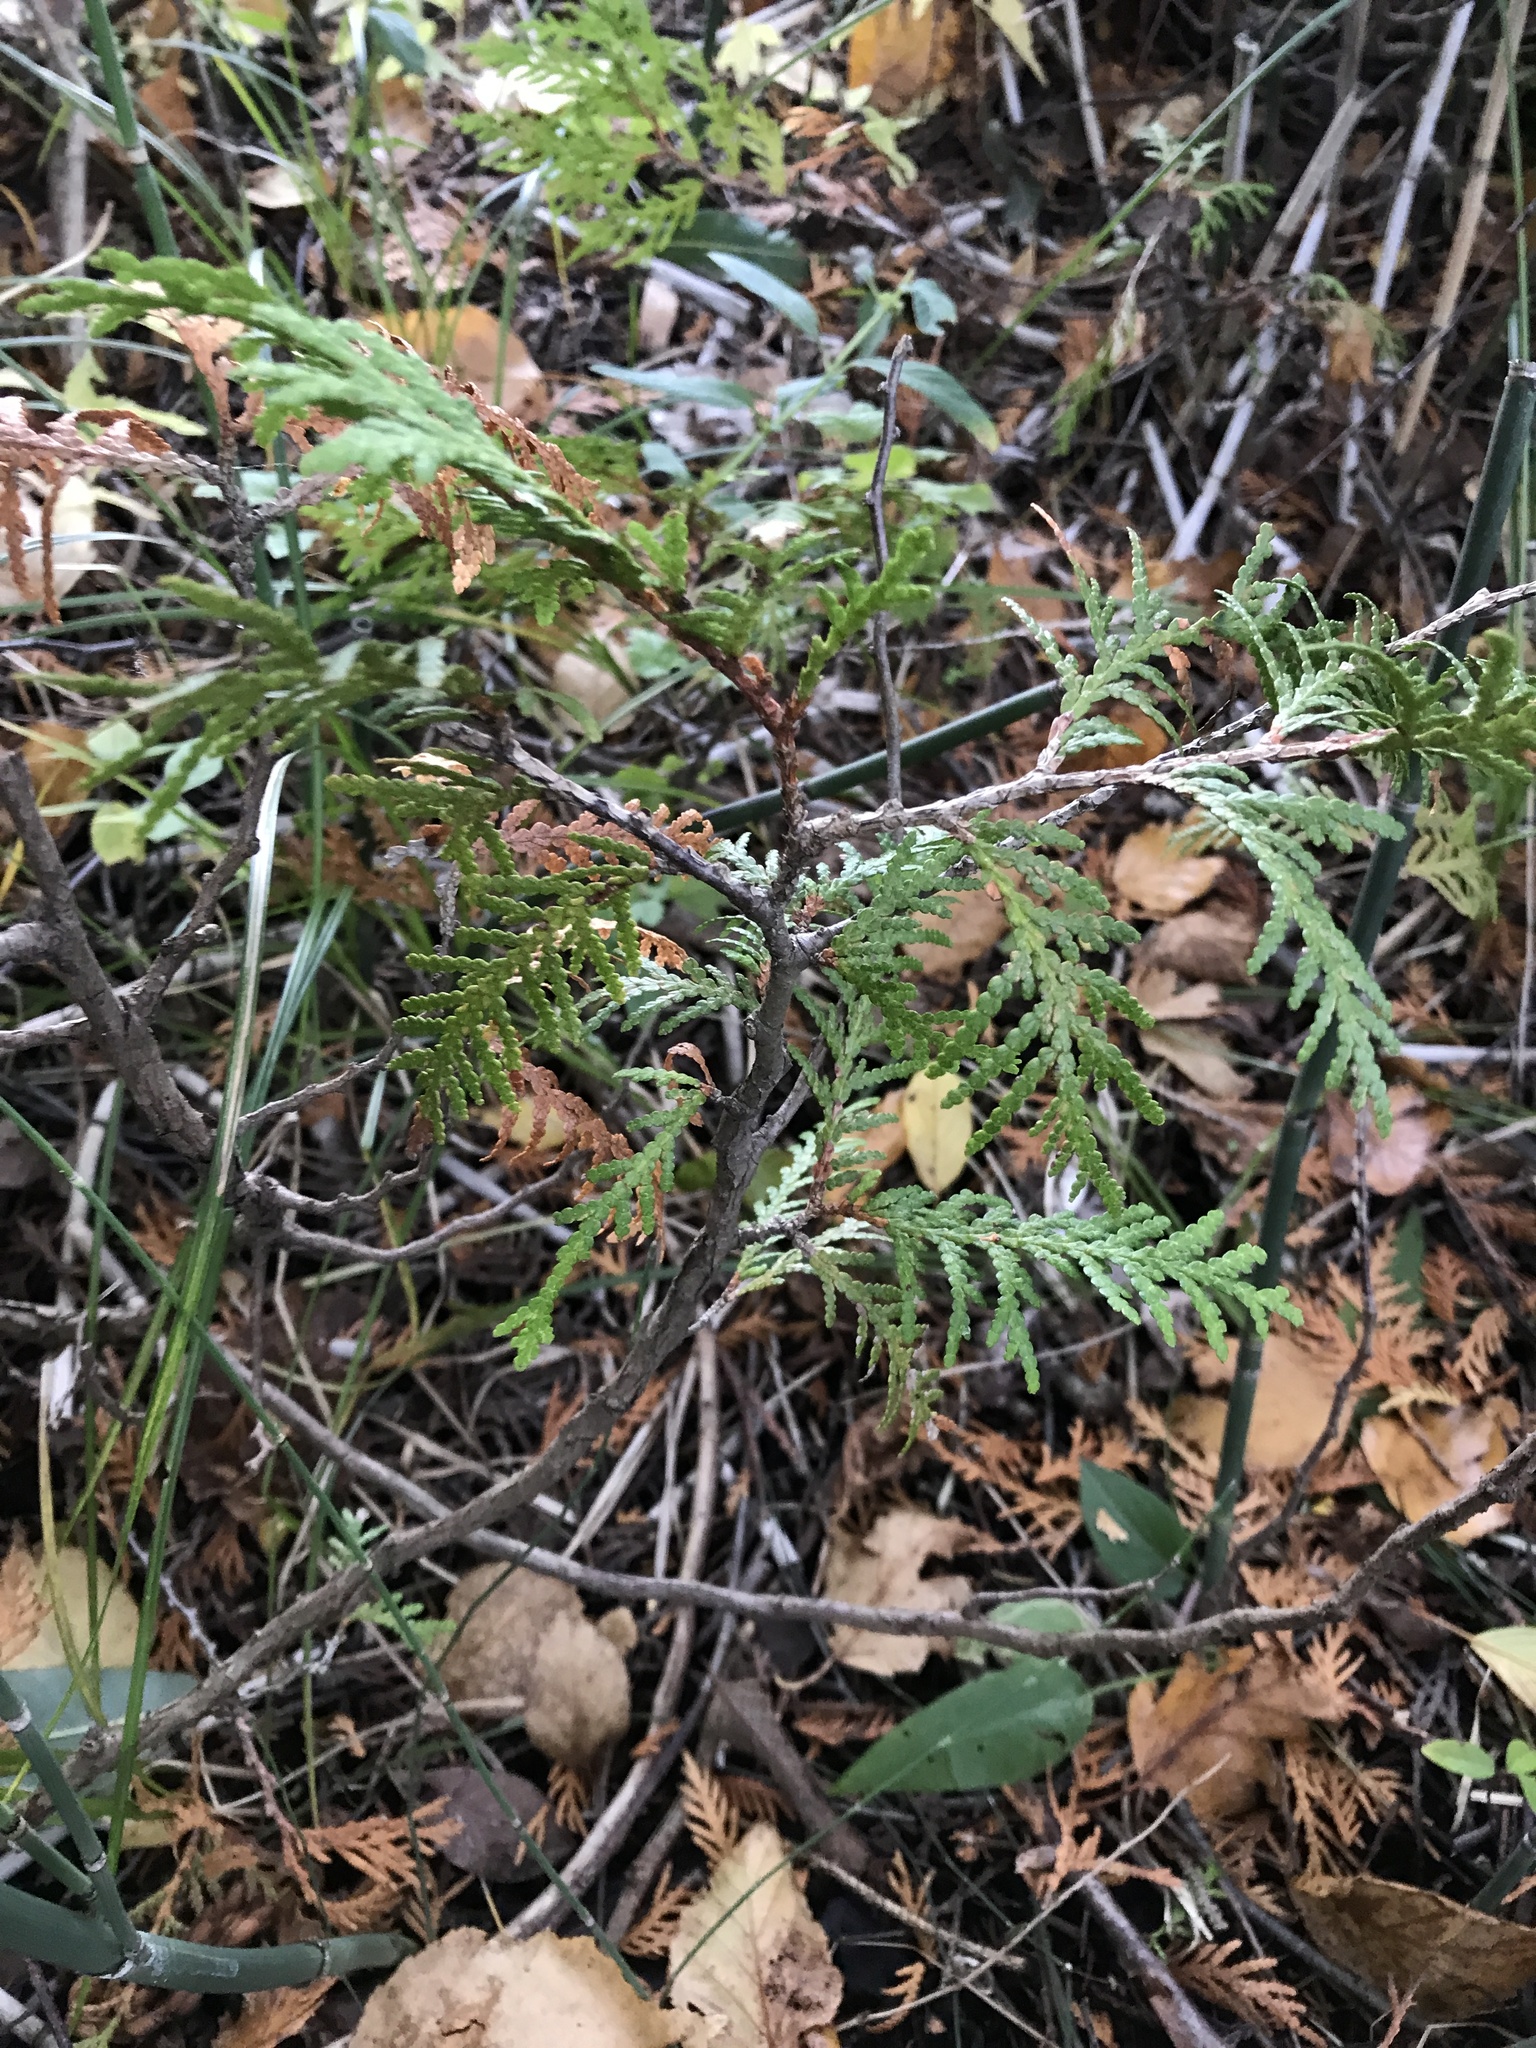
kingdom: Plantae
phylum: Tracheophyta
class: Pinopsida
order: Pinales
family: Cupressaceae
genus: Thuja
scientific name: Thuja occidentalis
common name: Northern white-cedar
